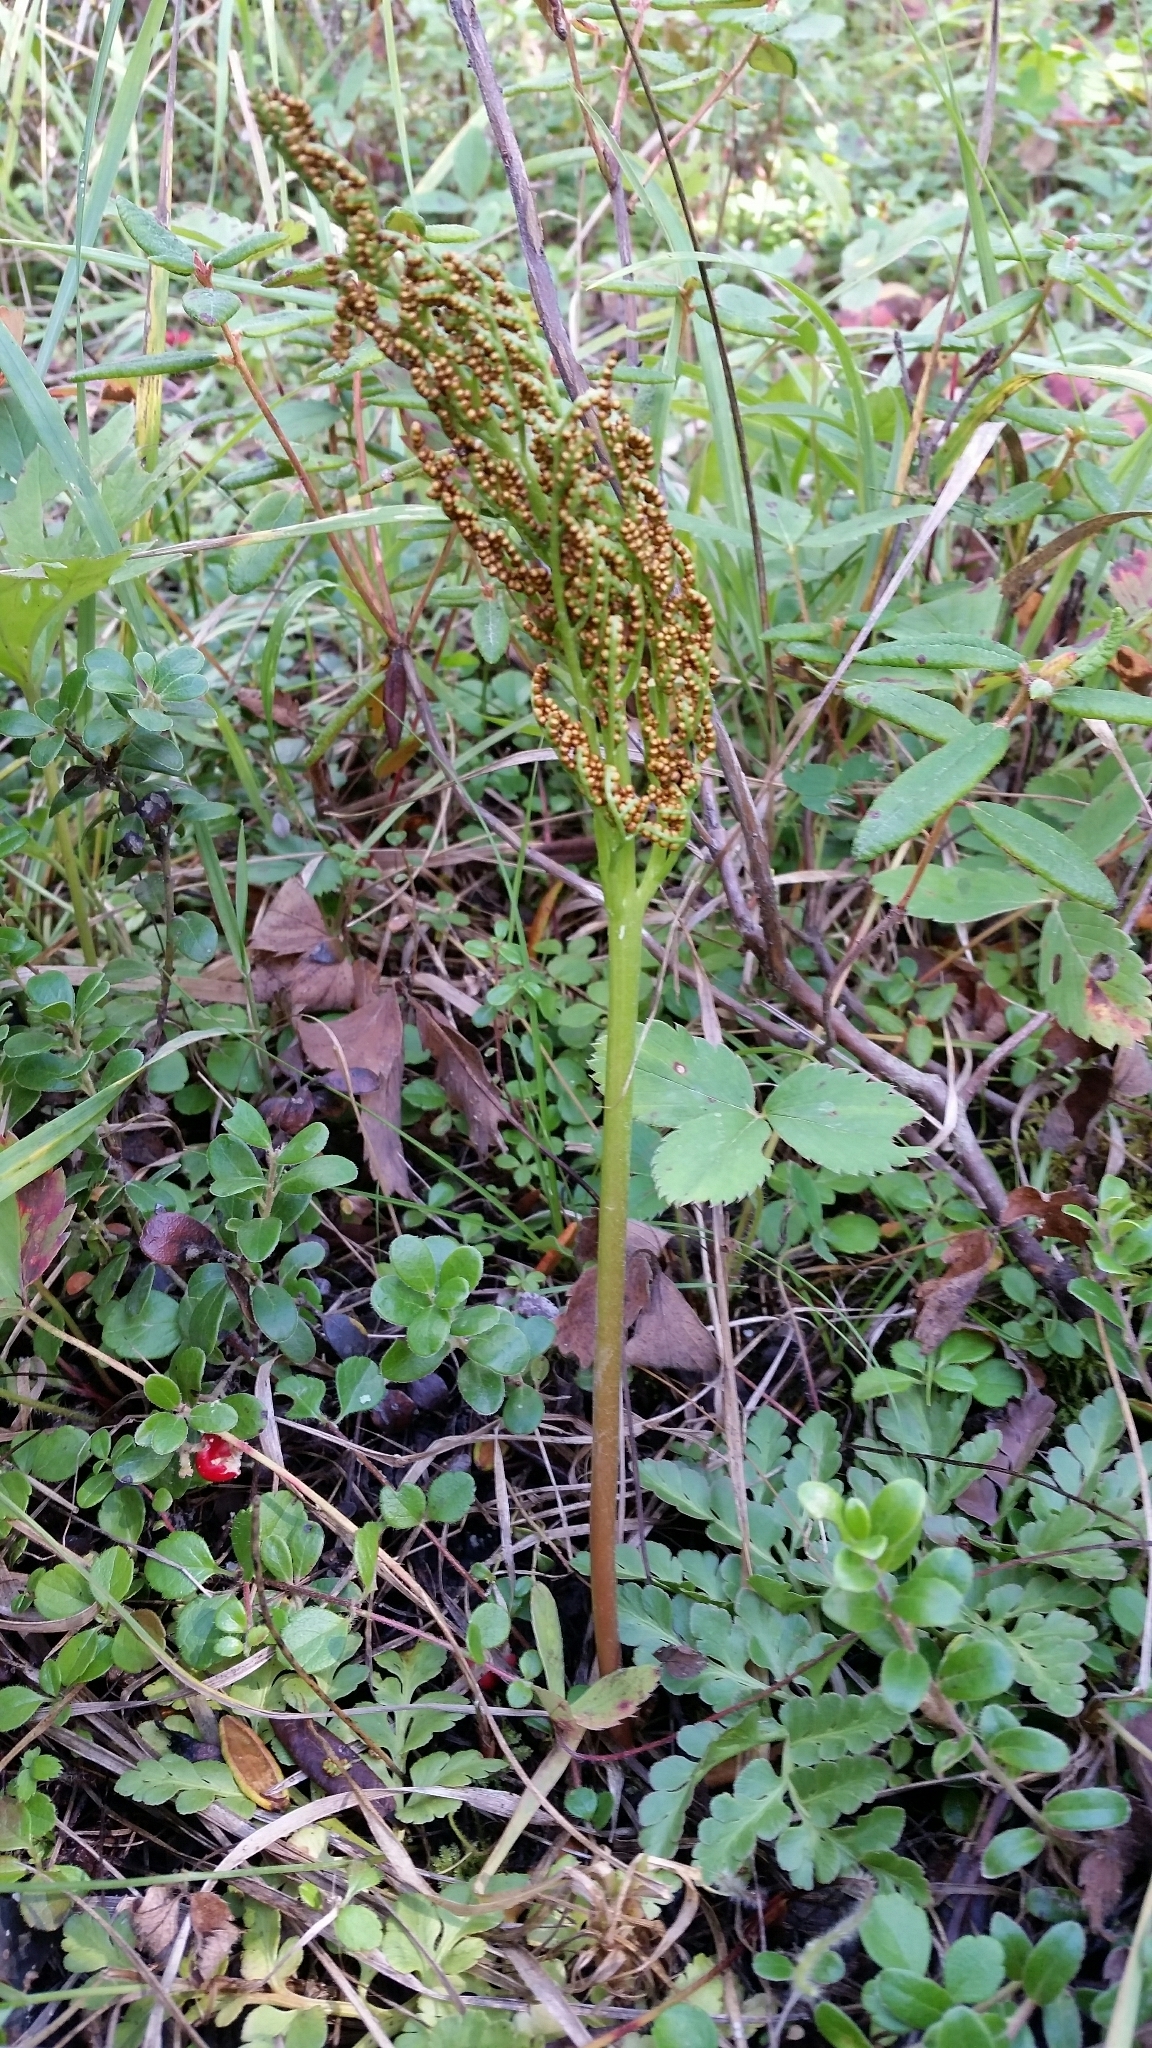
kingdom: Plantae
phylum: Tracheophyta
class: Polypodiopsida
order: Ophioglossales
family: Ophioglossaceae
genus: Sceptridium
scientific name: Sceptridium multifidum
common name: Leathery grape fern
